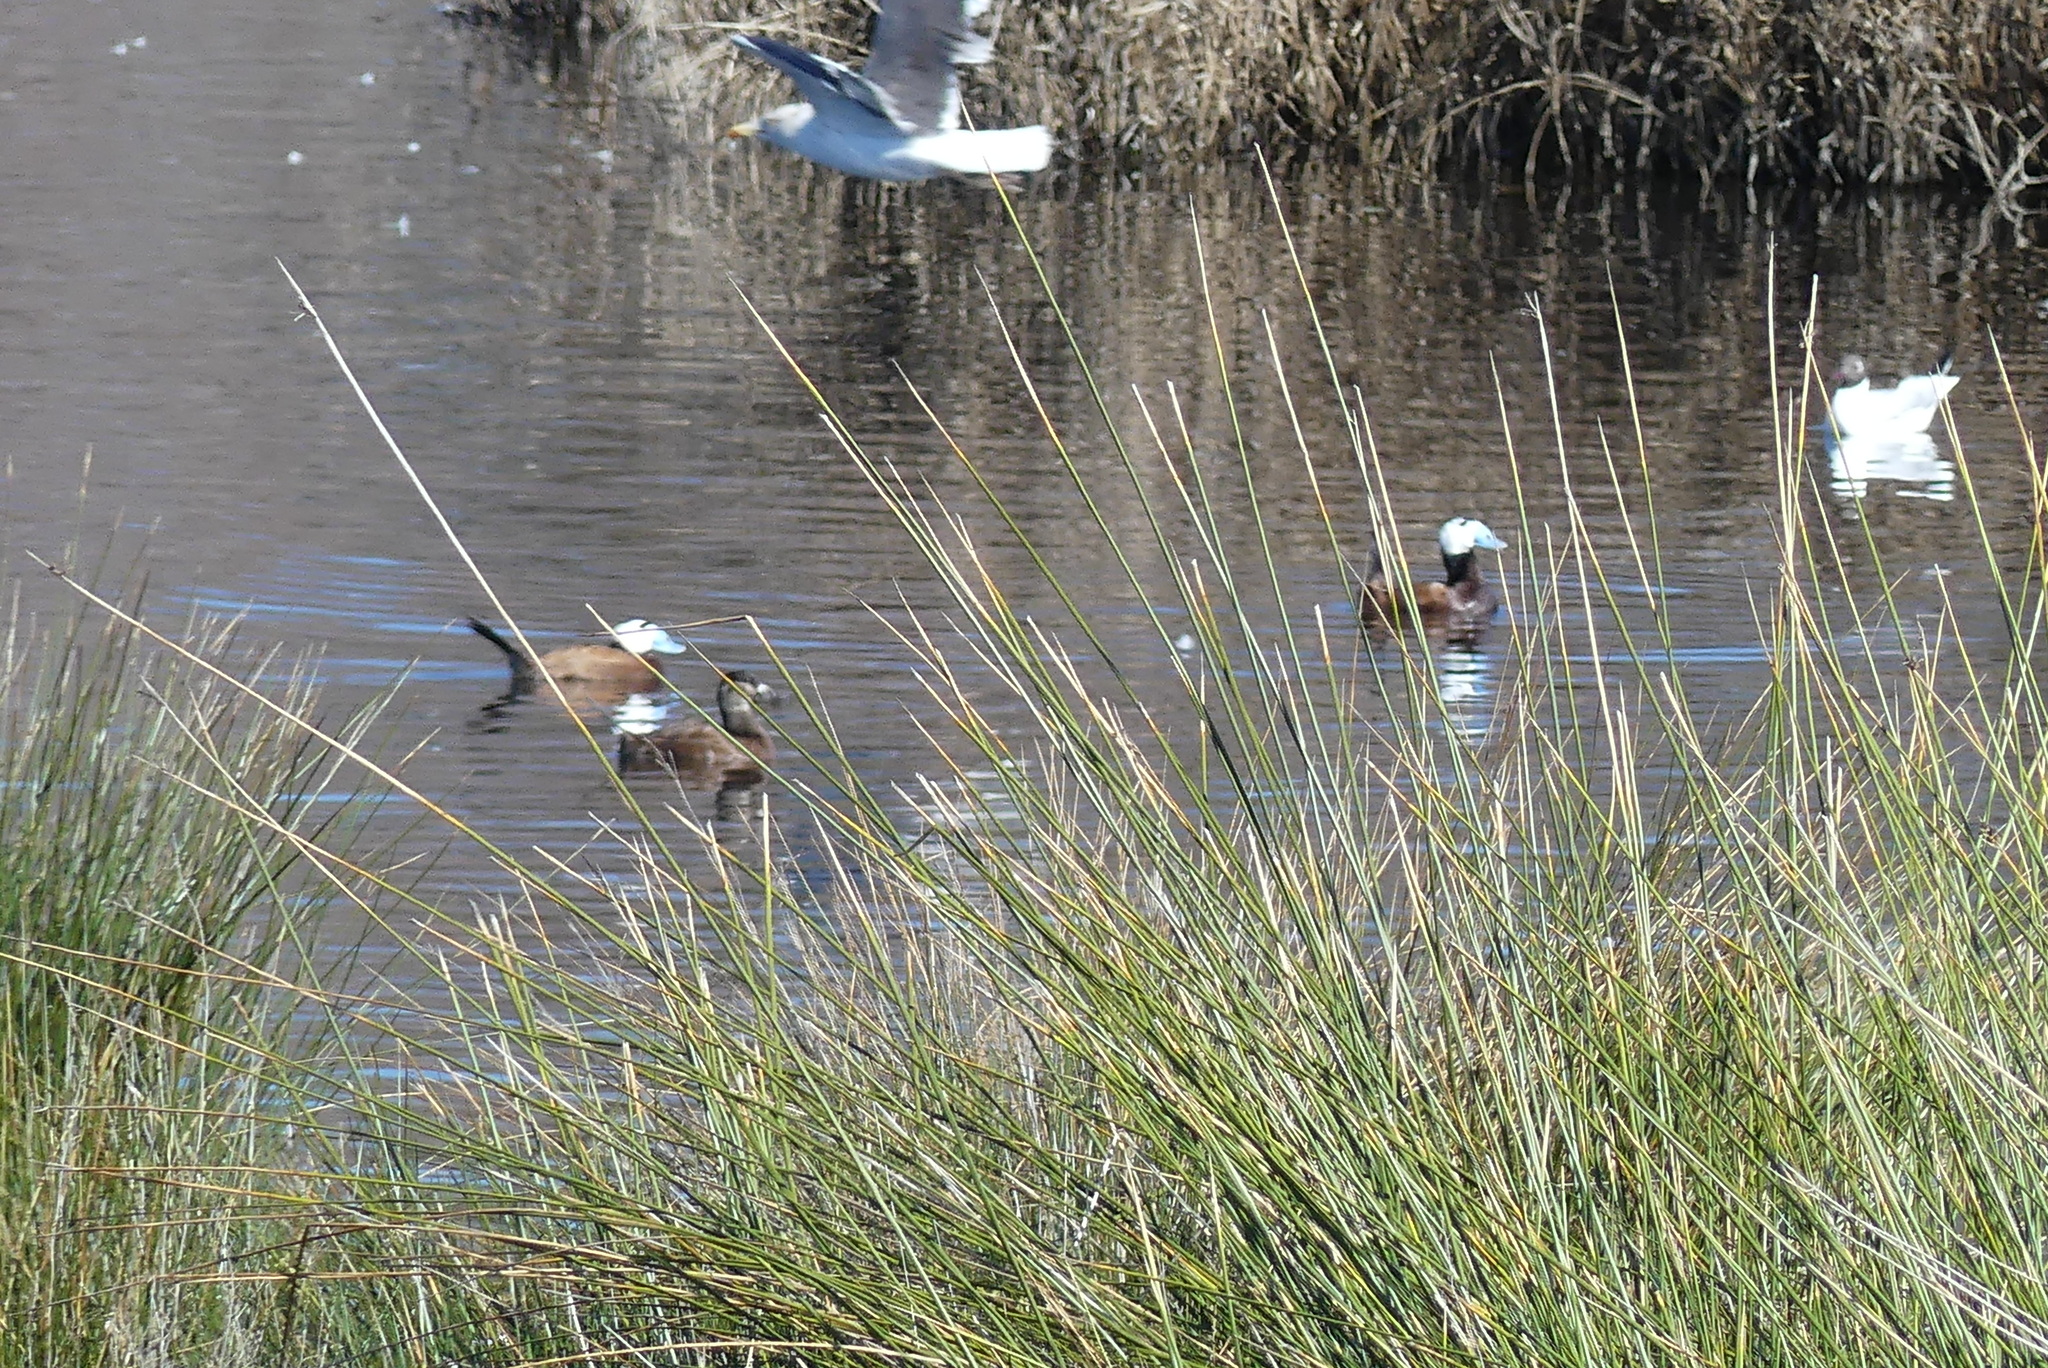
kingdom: Animalia
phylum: Chordata
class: Aves
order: Anseriformes
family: Anatidae
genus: Oxyura
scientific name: Oxyura leucocephala
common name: White-headed duck
